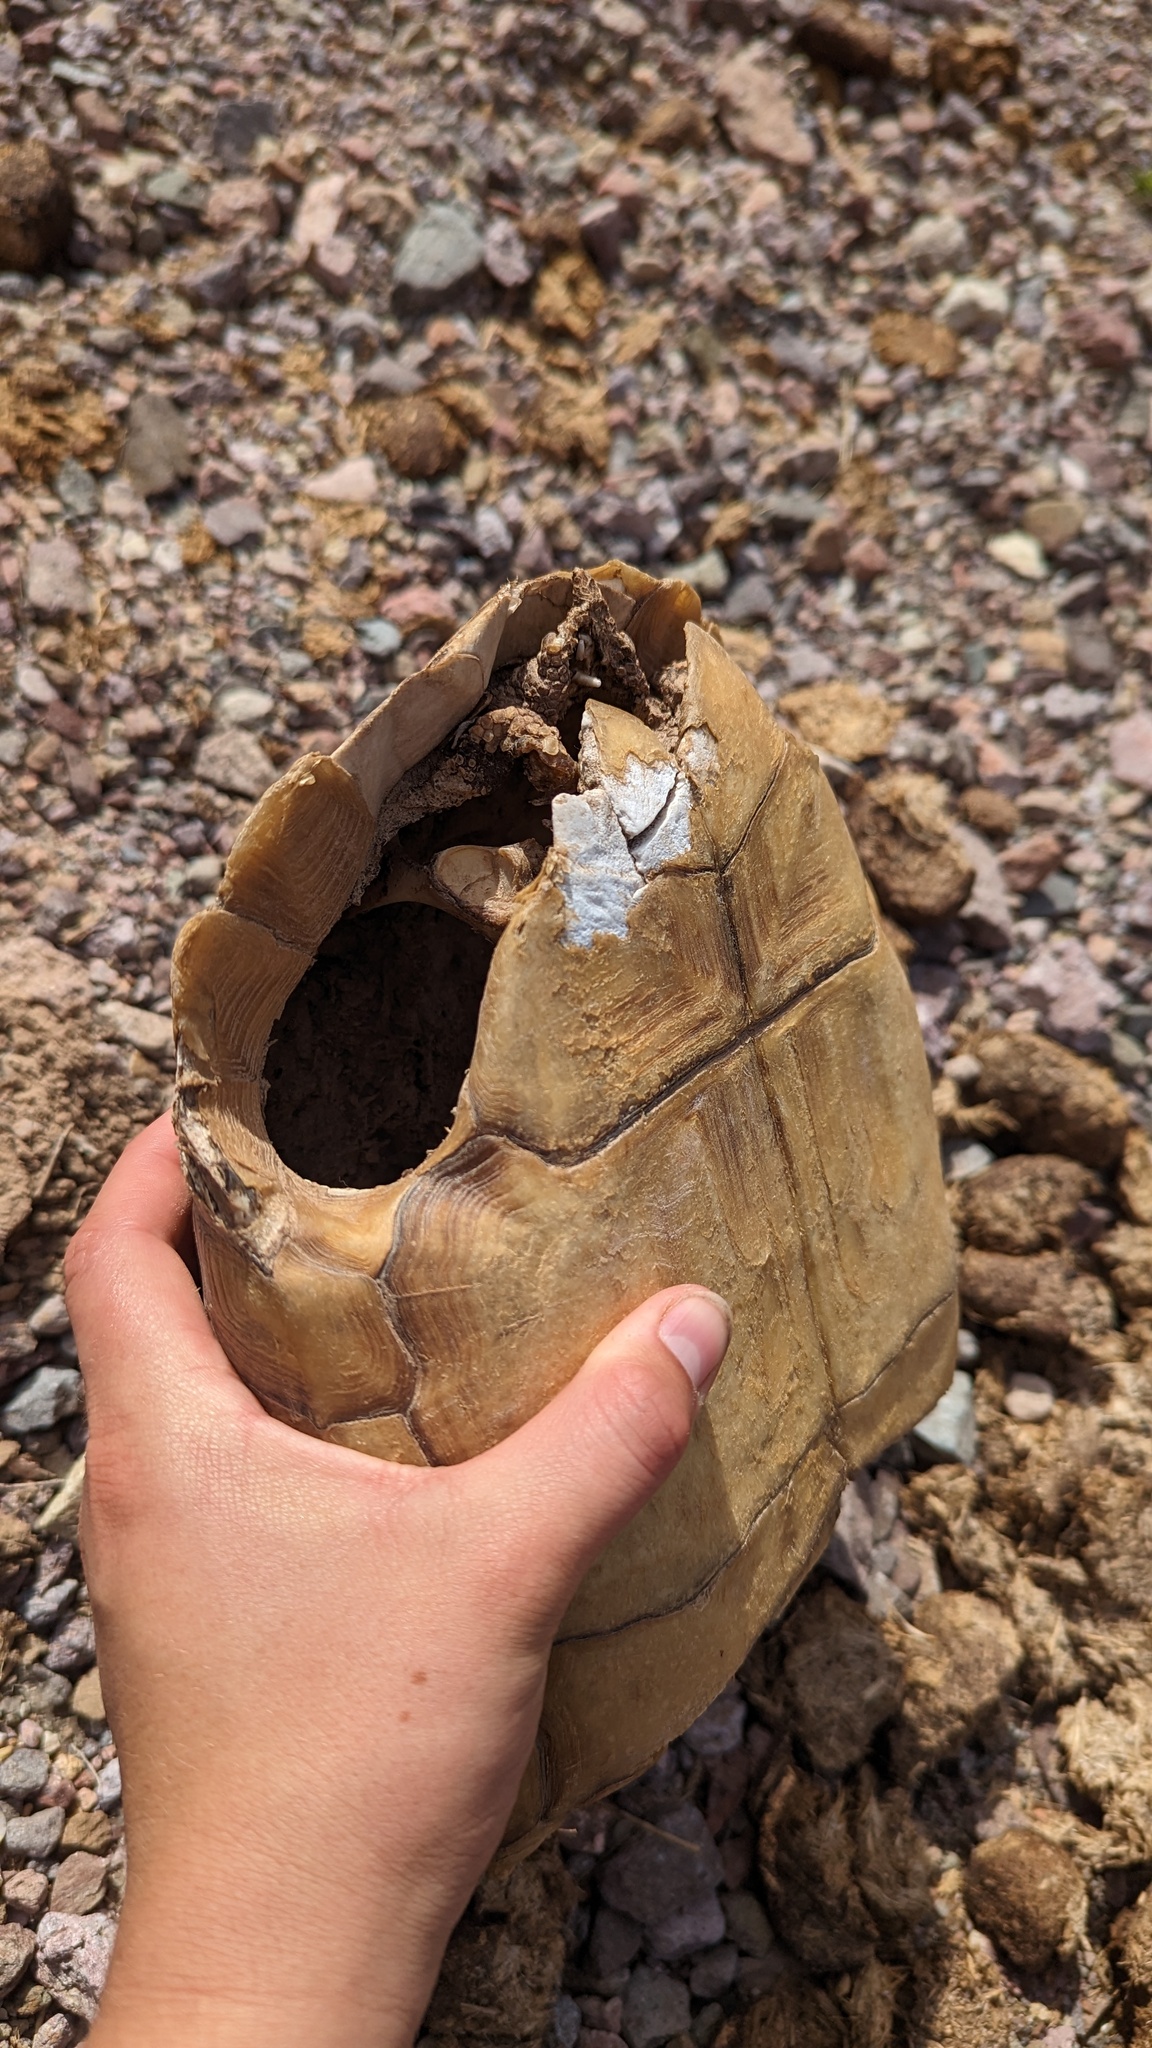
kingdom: Animalia
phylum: Chordata
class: Testudines
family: Testudinidae
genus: Gopherus
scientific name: Gopherus agassizii
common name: Mojave desert tortoise
